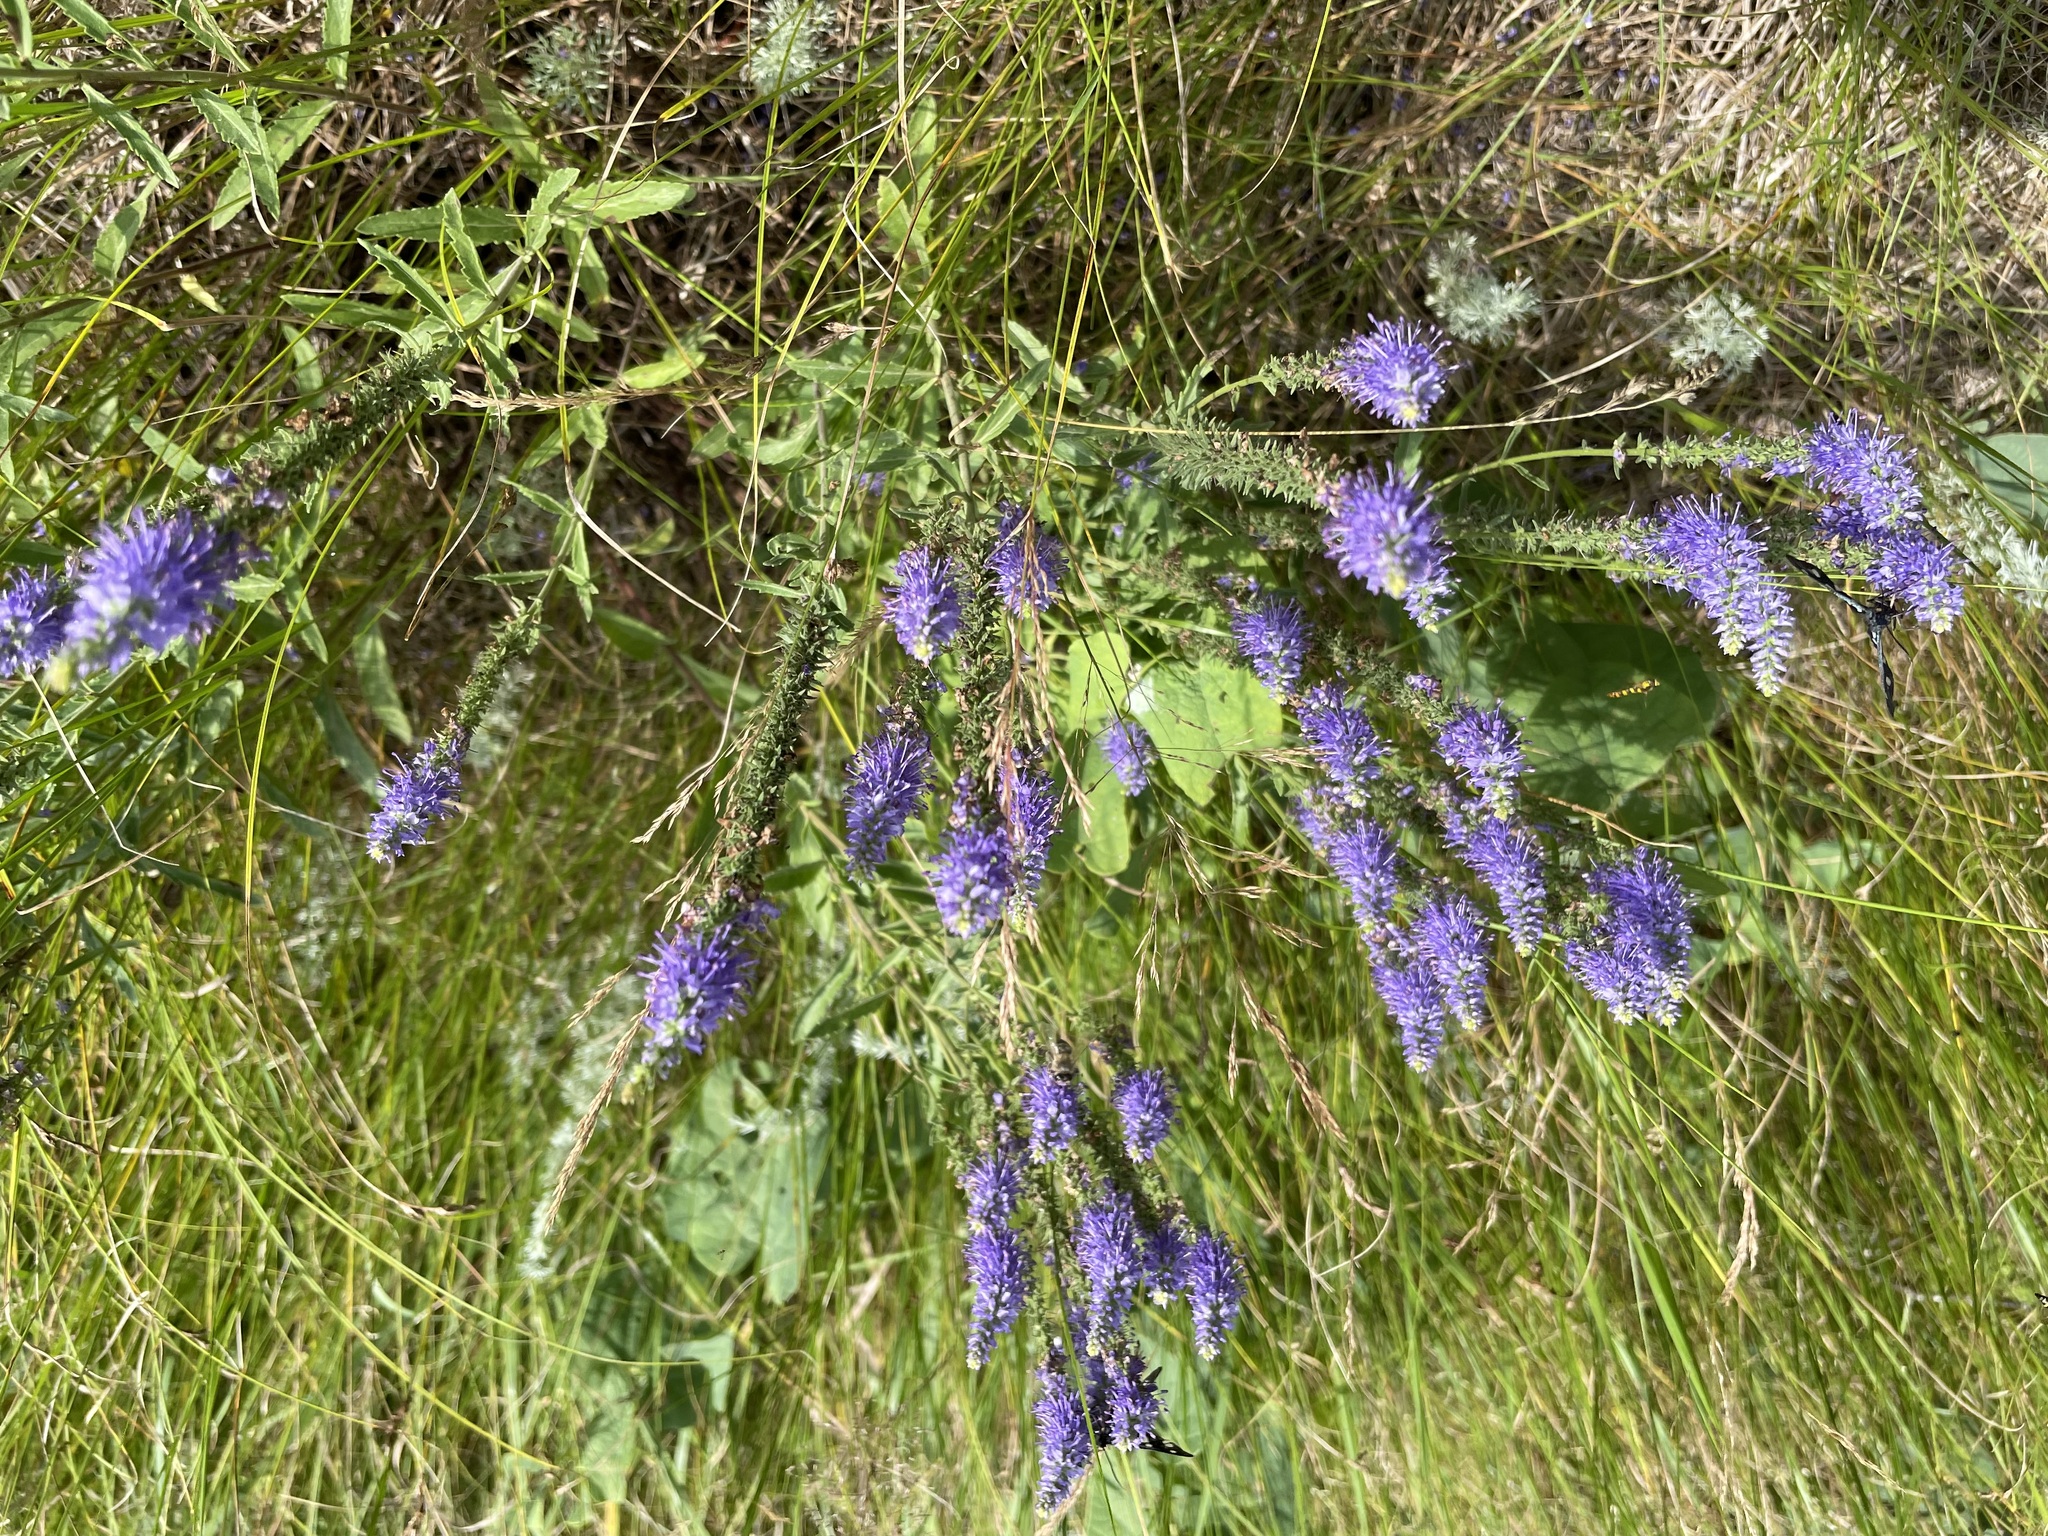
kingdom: Plantae
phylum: Tracheophyta
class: Magnoliopsida
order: Lamiales
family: Plantaginaceae
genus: Veronica
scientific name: Veronica spicata
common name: Spiked speedwell
